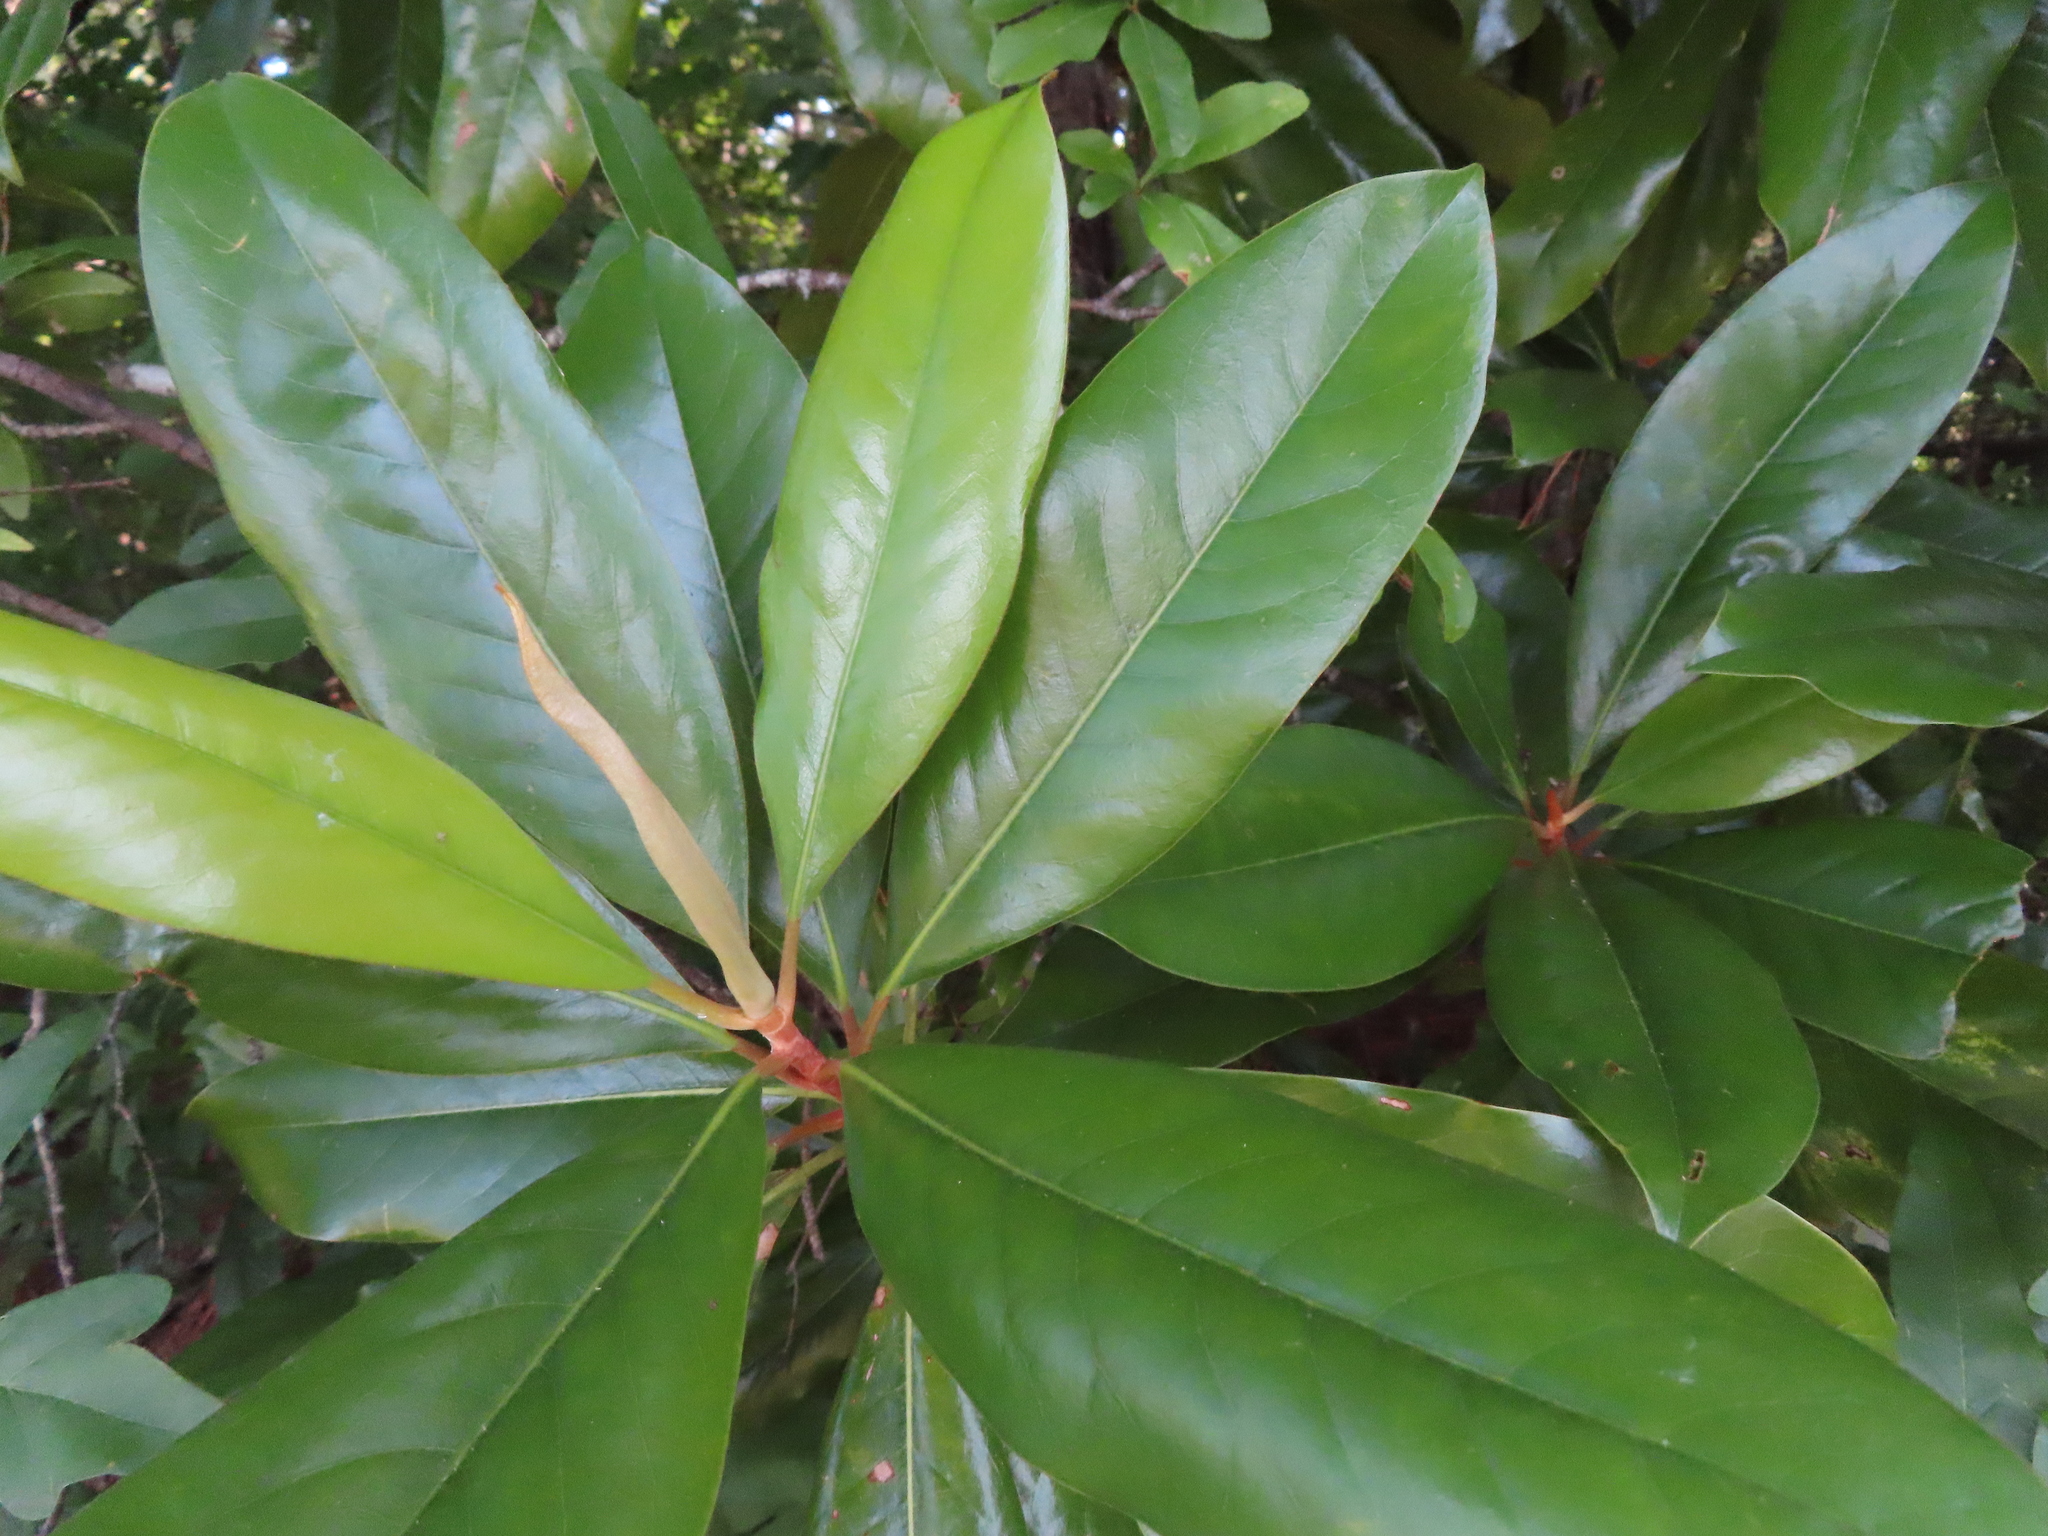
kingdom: Plantae
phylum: Tracheophyta
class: Magnoliopsida
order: Magnoliales
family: Magnoliaceae
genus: Magnolia
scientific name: Magnolia grandiflora
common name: Southern magnolia
